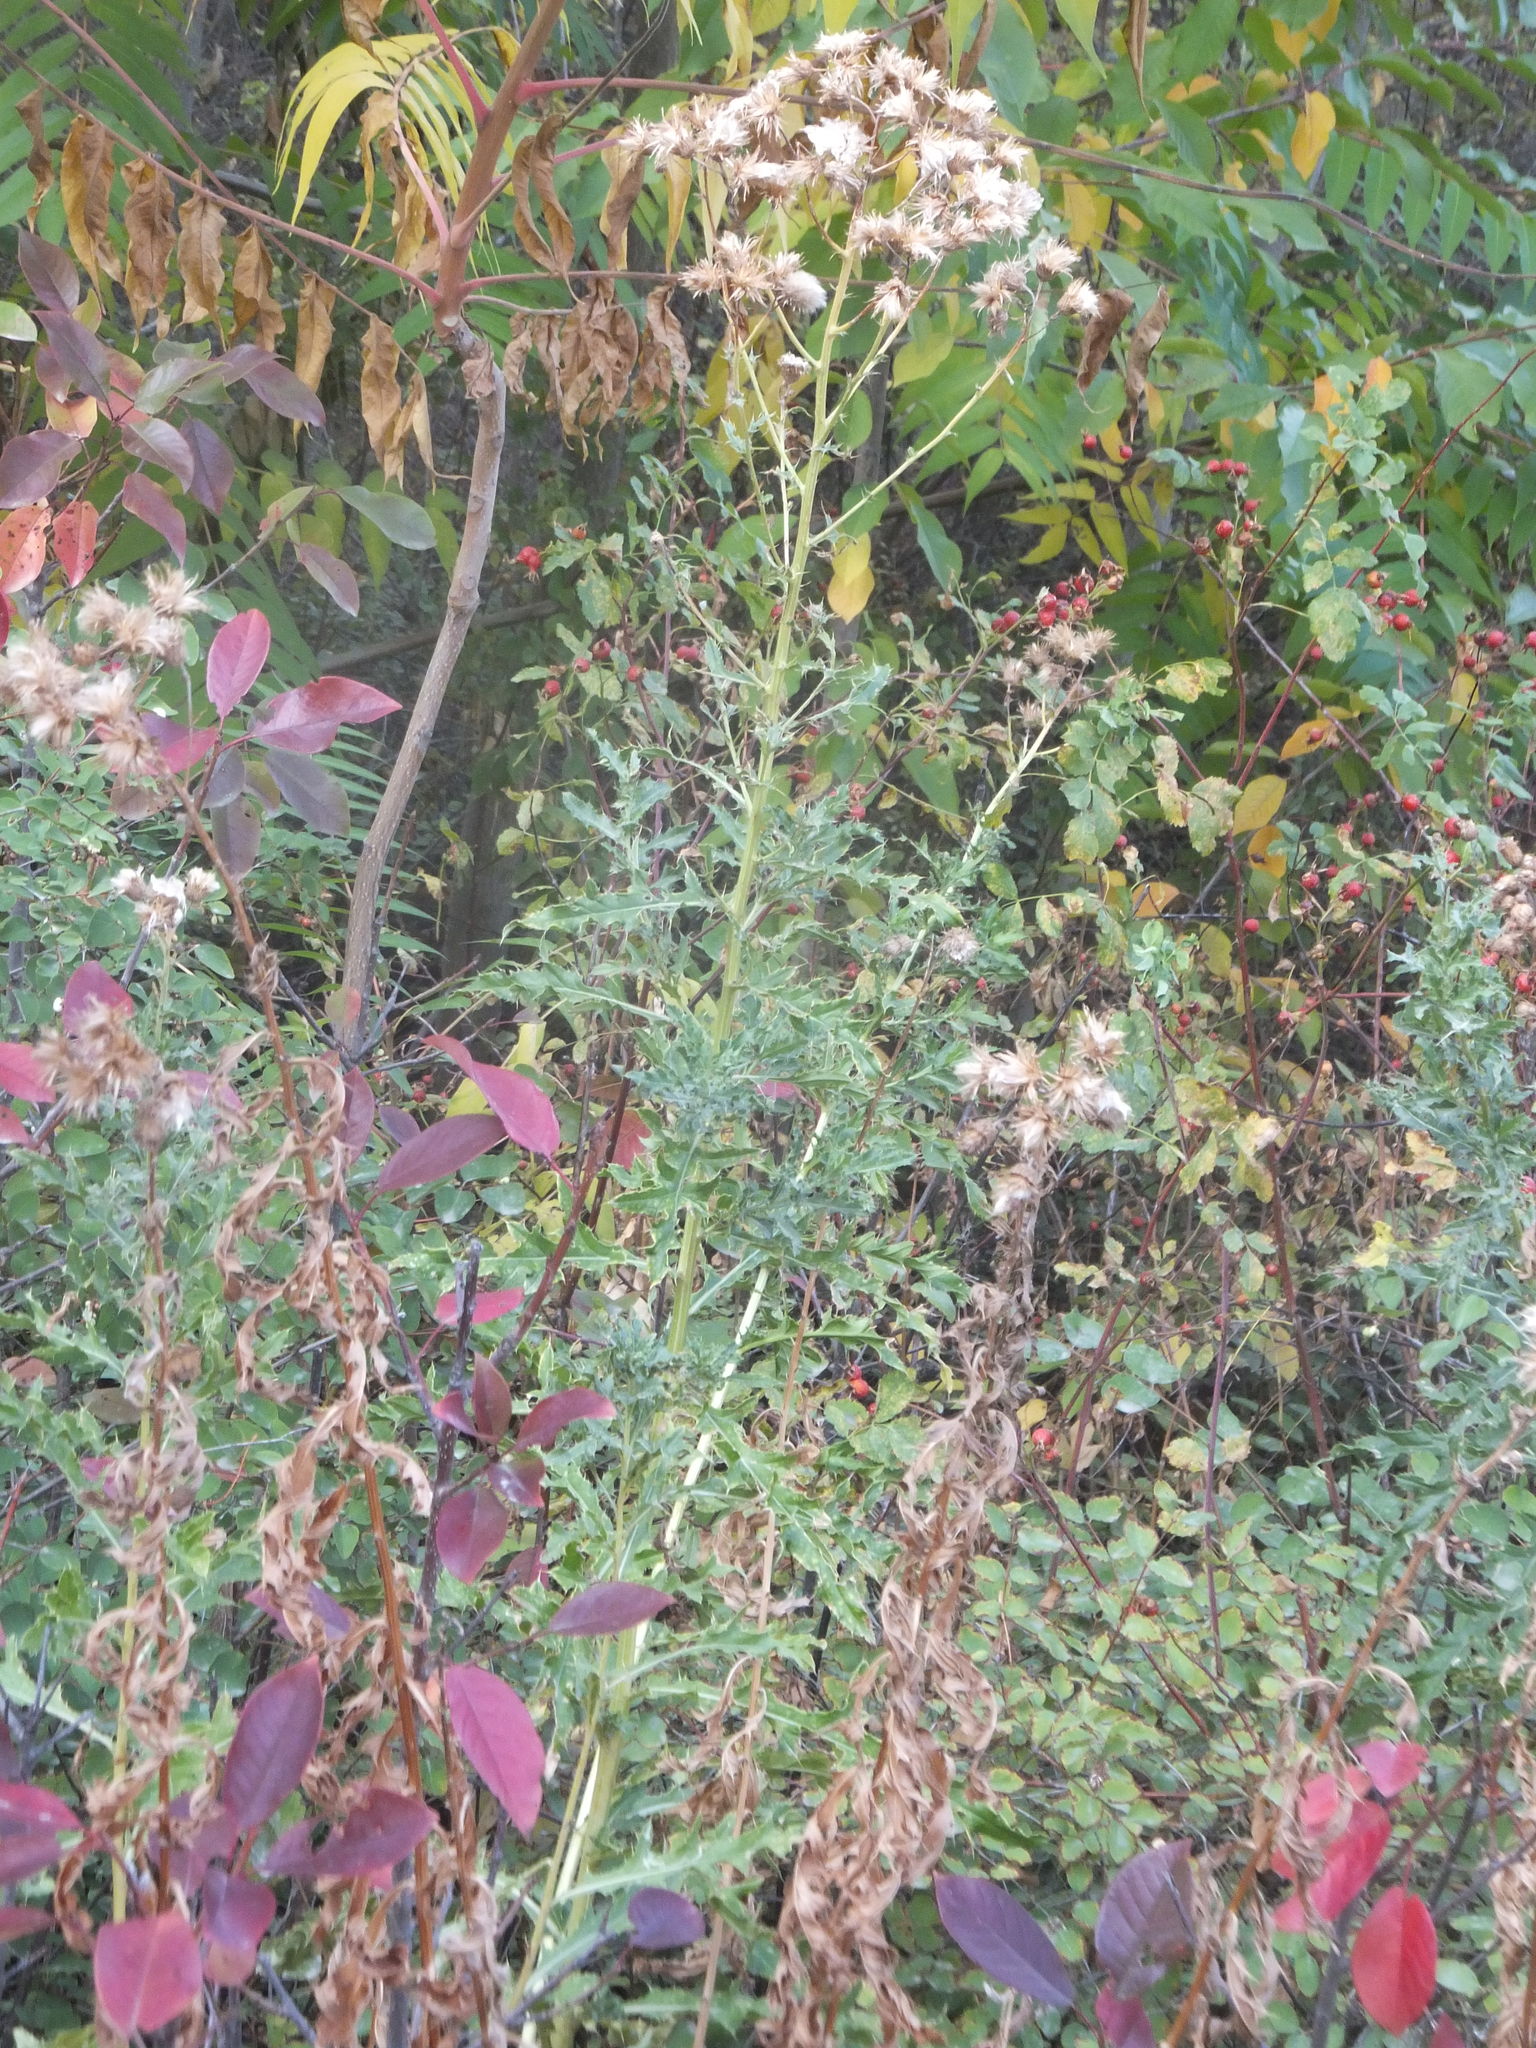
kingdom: Plantae
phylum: Tracheophyta
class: Magnoliopsida
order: Asterales
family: Asteraceae
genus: Cirsium
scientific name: Cirsium arvense
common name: Creeping thistle
